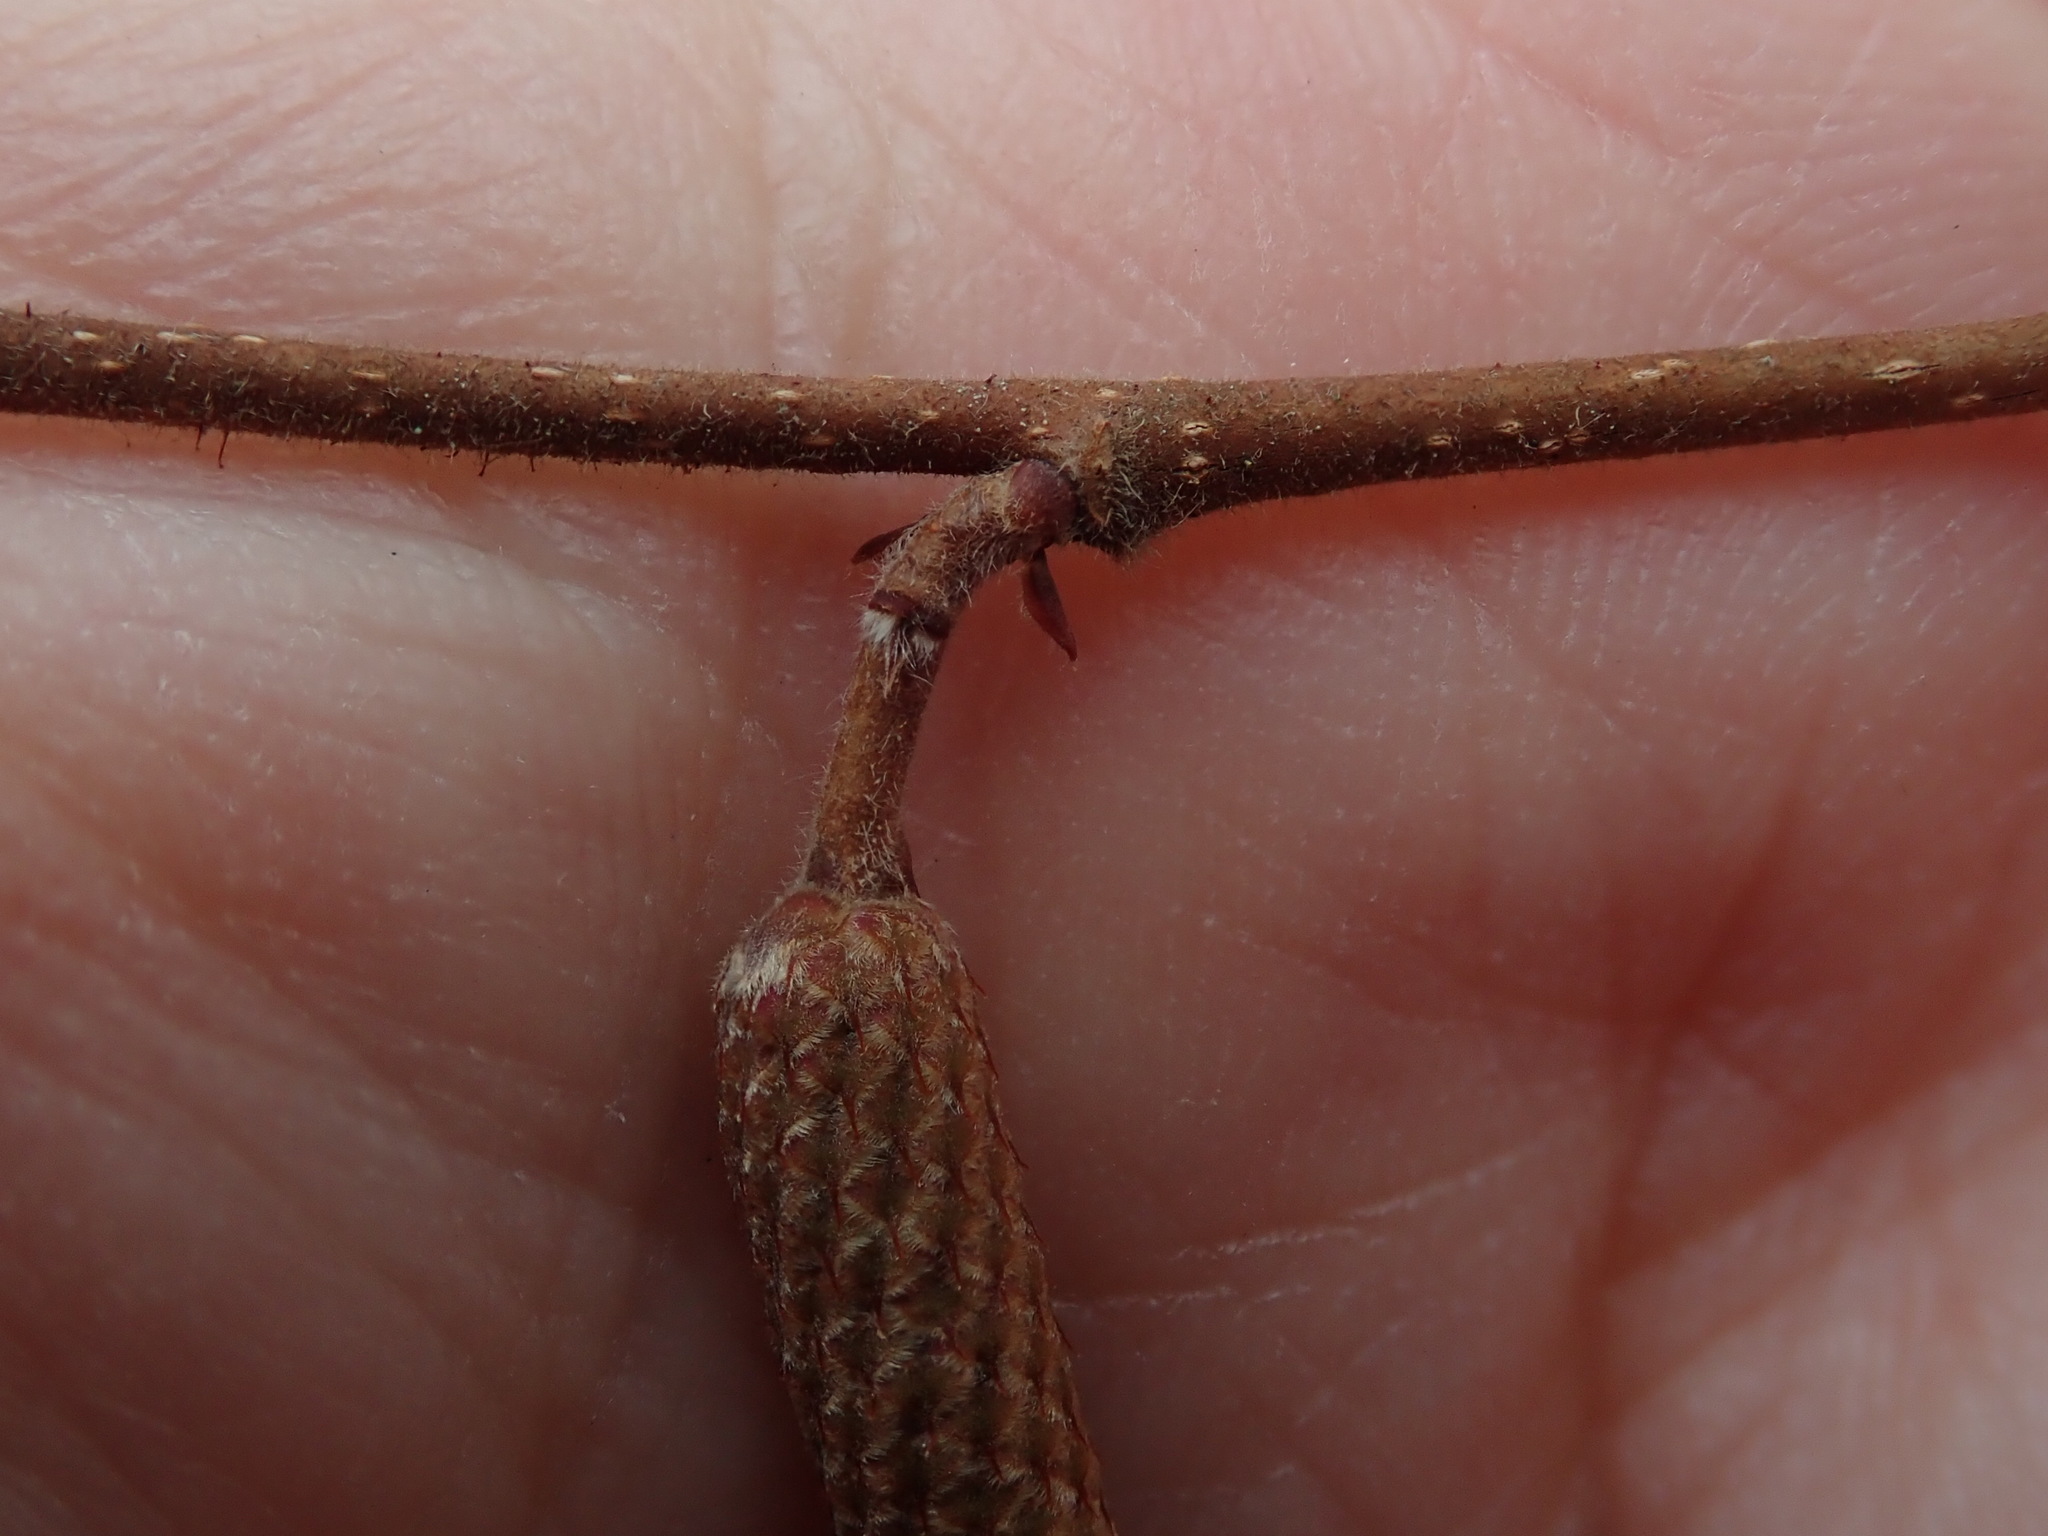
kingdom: Plantae
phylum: Tracheophyta
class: Magnoliopsida
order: Fagales
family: Betulaceae
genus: Corylus
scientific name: Corylus americana
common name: American hazel
